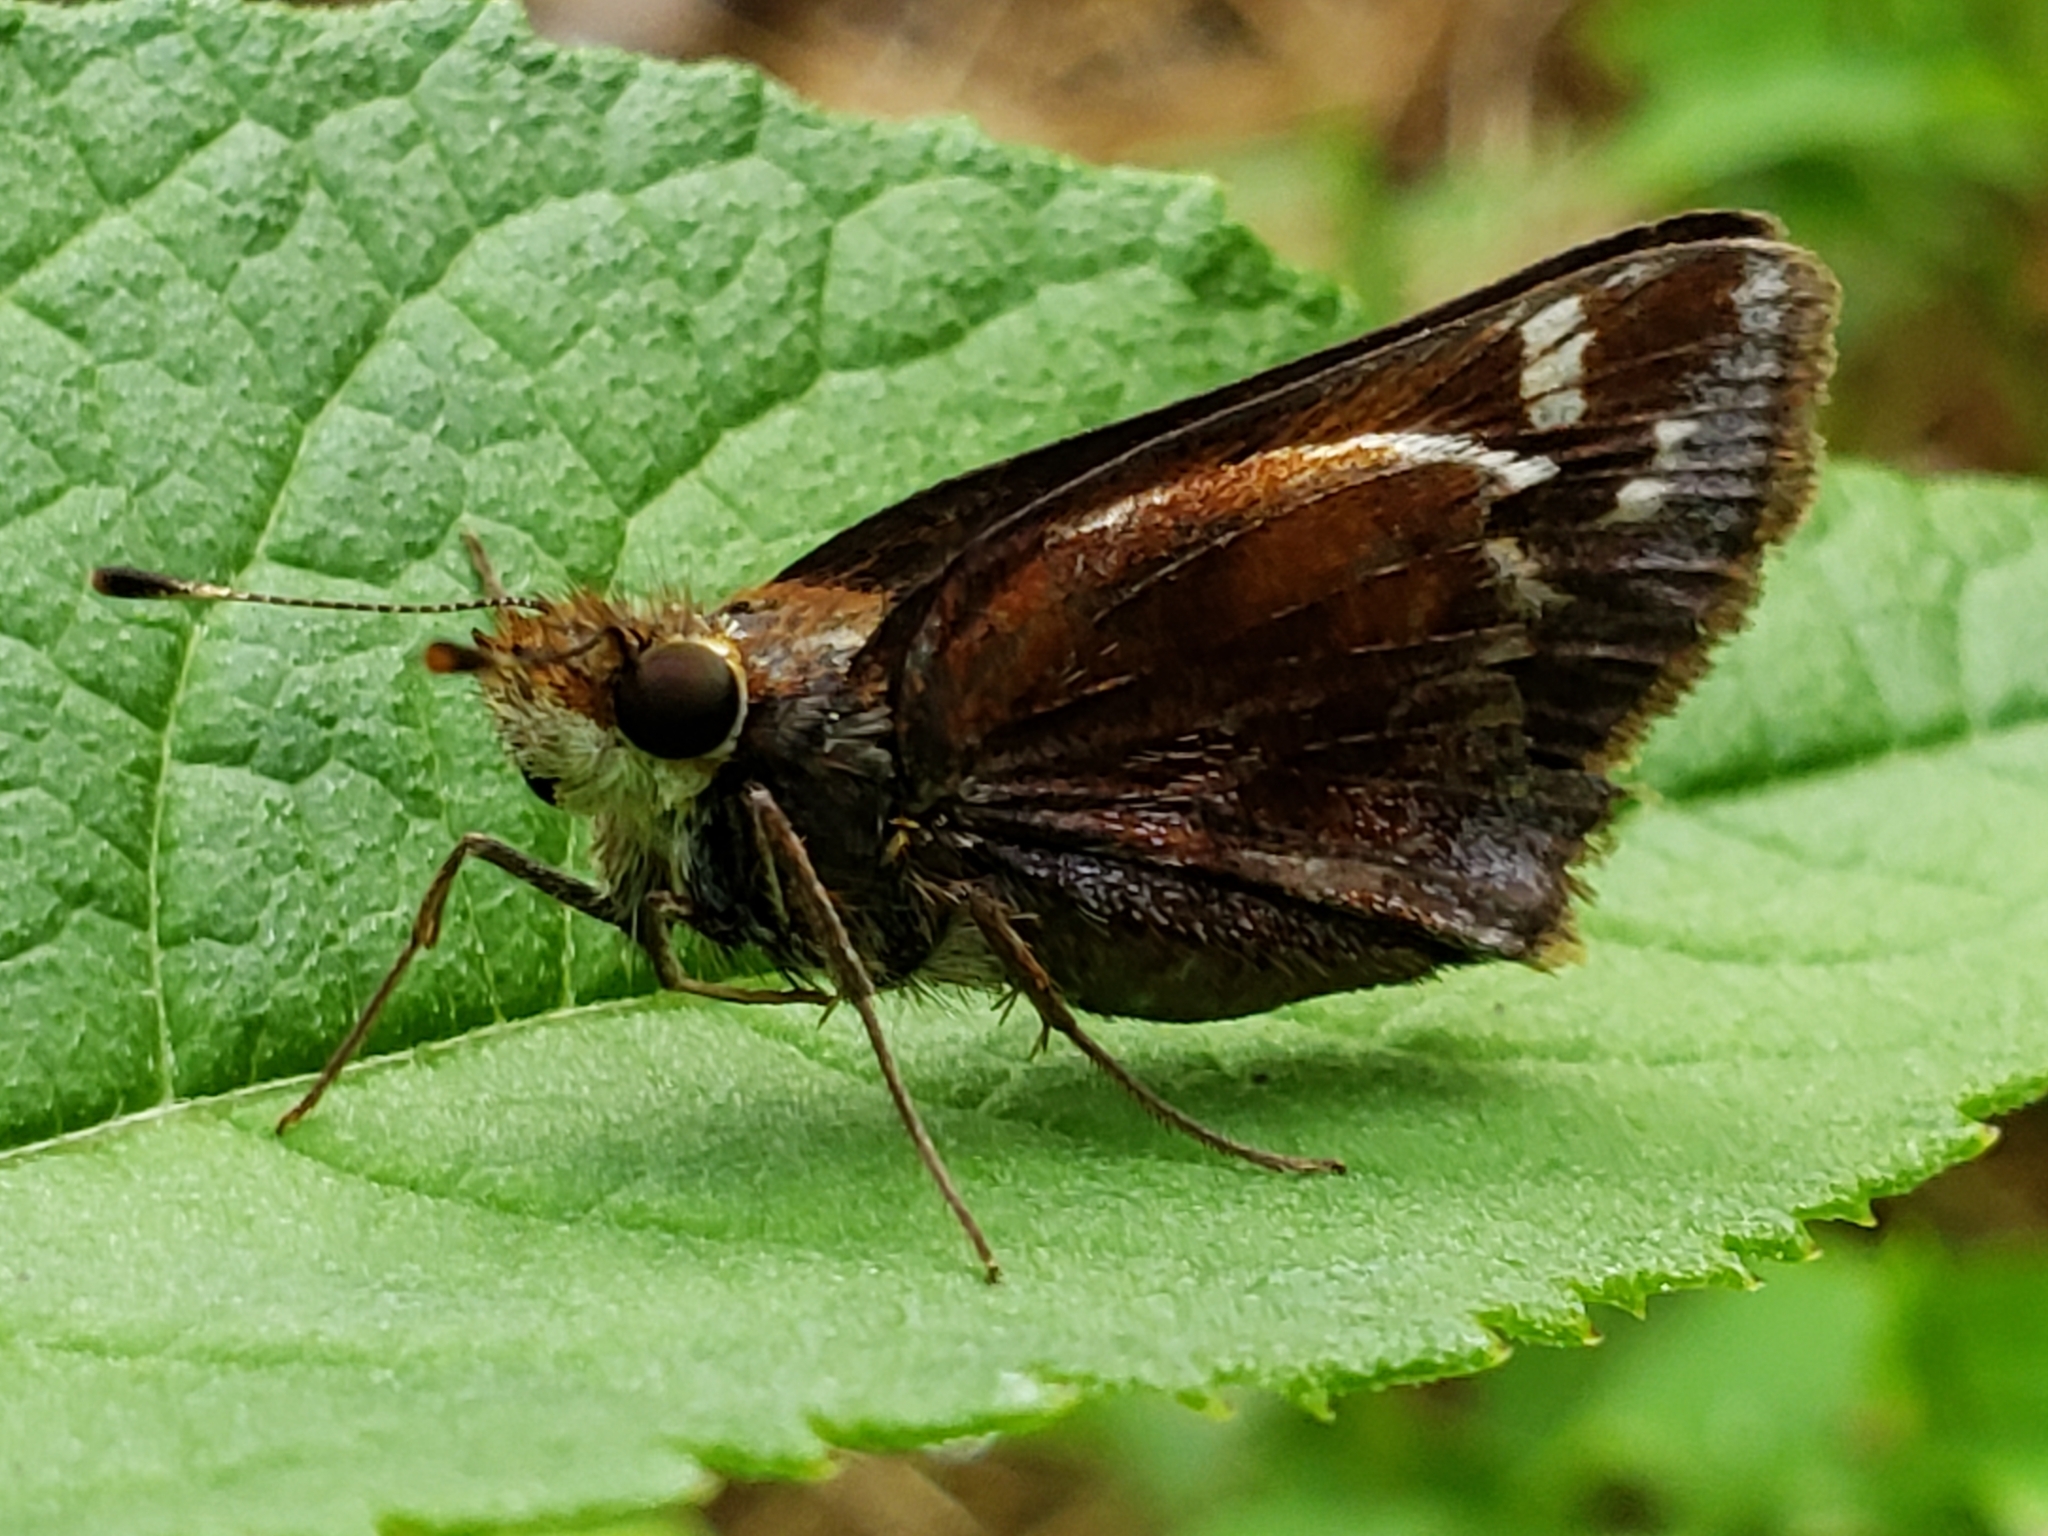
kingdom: Animalia
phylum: Arthropoda
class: Insecta
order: Lepidoptera
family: Hesperiidae
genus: Lon
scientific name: Lon zabulon
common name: Zabulon skipper
